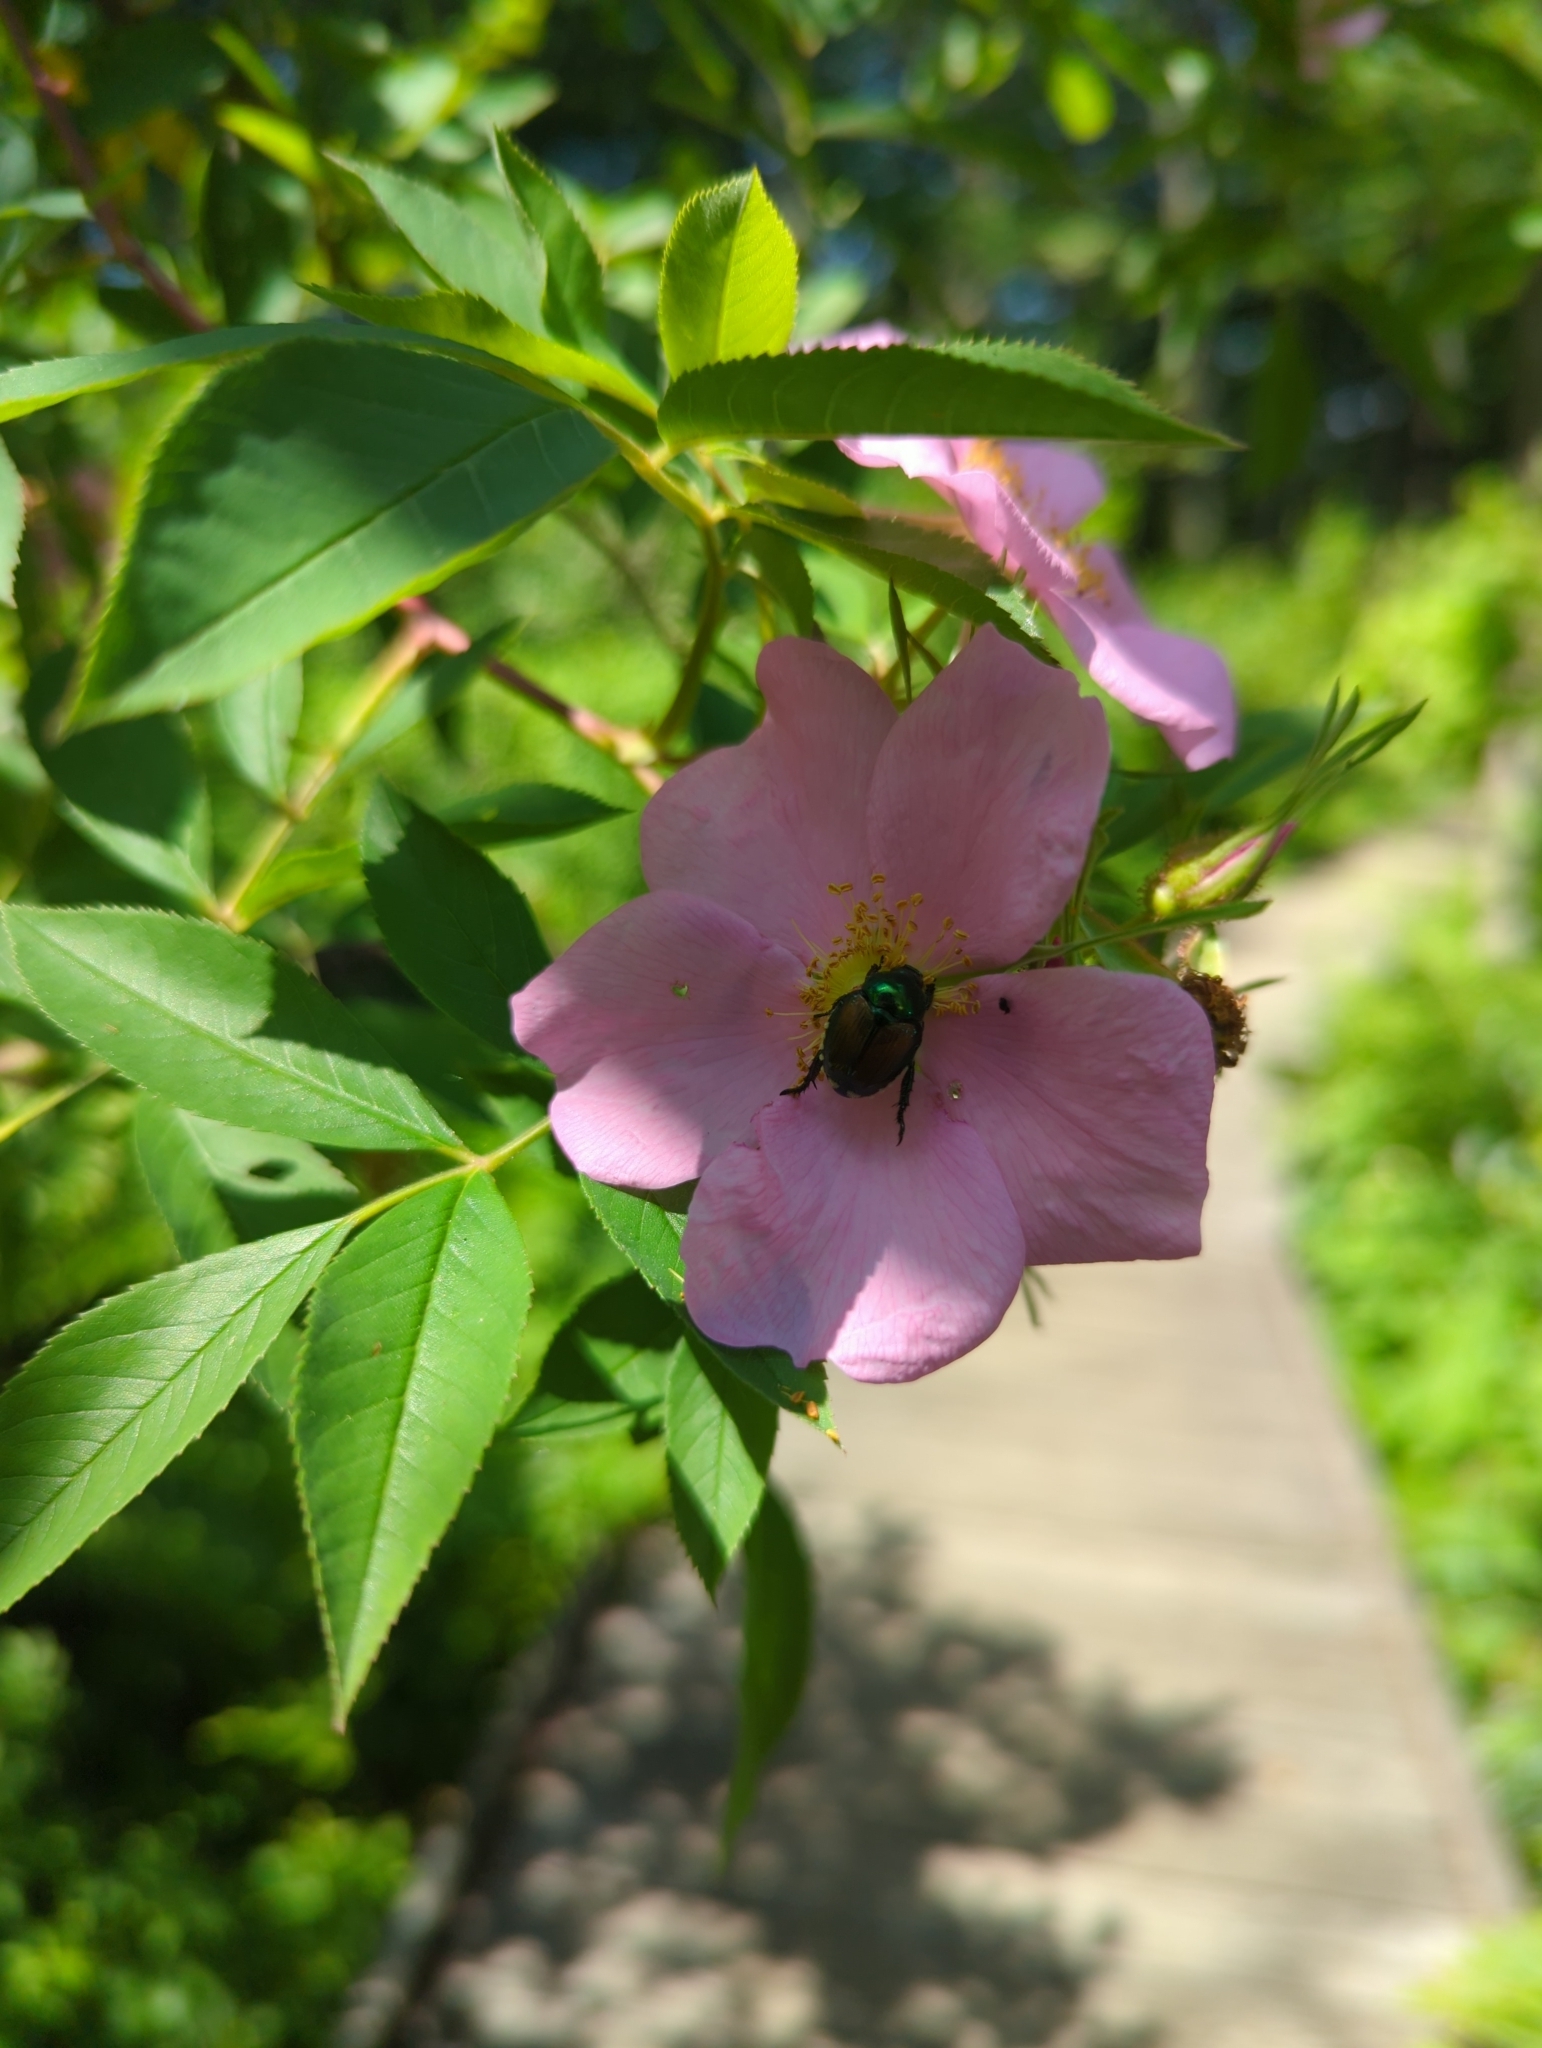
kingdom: Animalia
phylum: Arthropoda
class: Insecta
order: Coleoptera
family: Scarabaeidae
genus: Popillia
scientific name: Popillia japonica
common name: Japanese beetle
